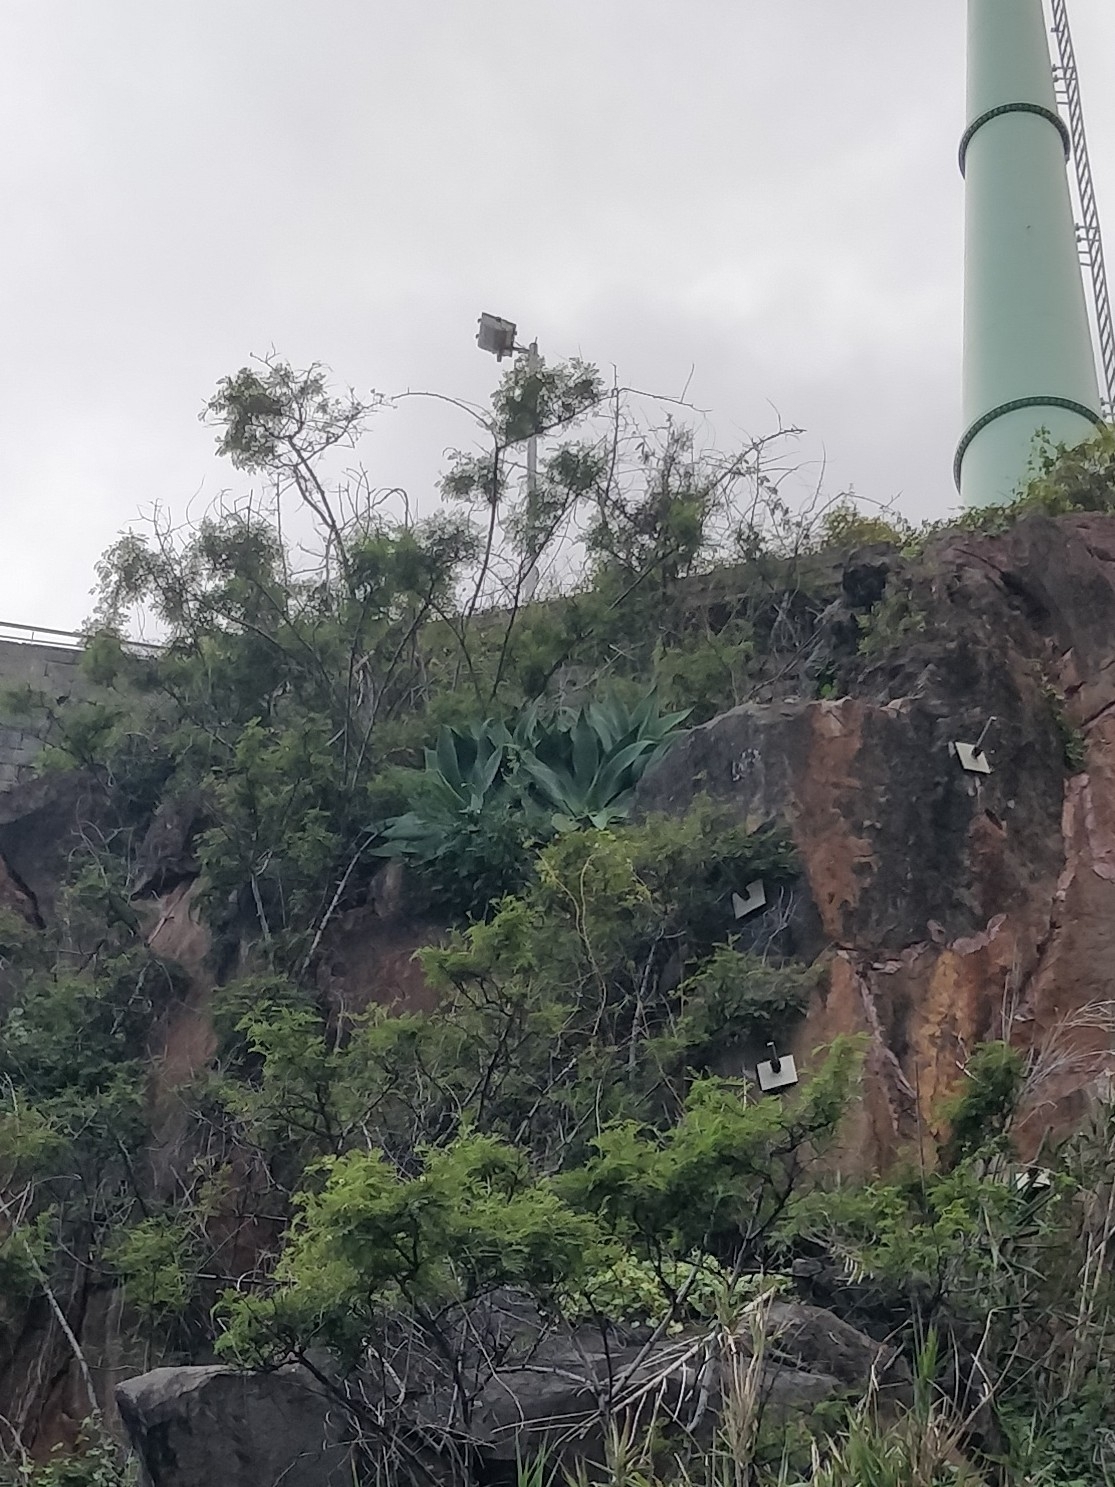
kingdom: Plantae
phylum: Tracheophyta
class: Liliopsida
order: Asparagales
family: Asparagaceae
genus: Agave
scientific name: Agave attenuata
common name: Fox tail agave
